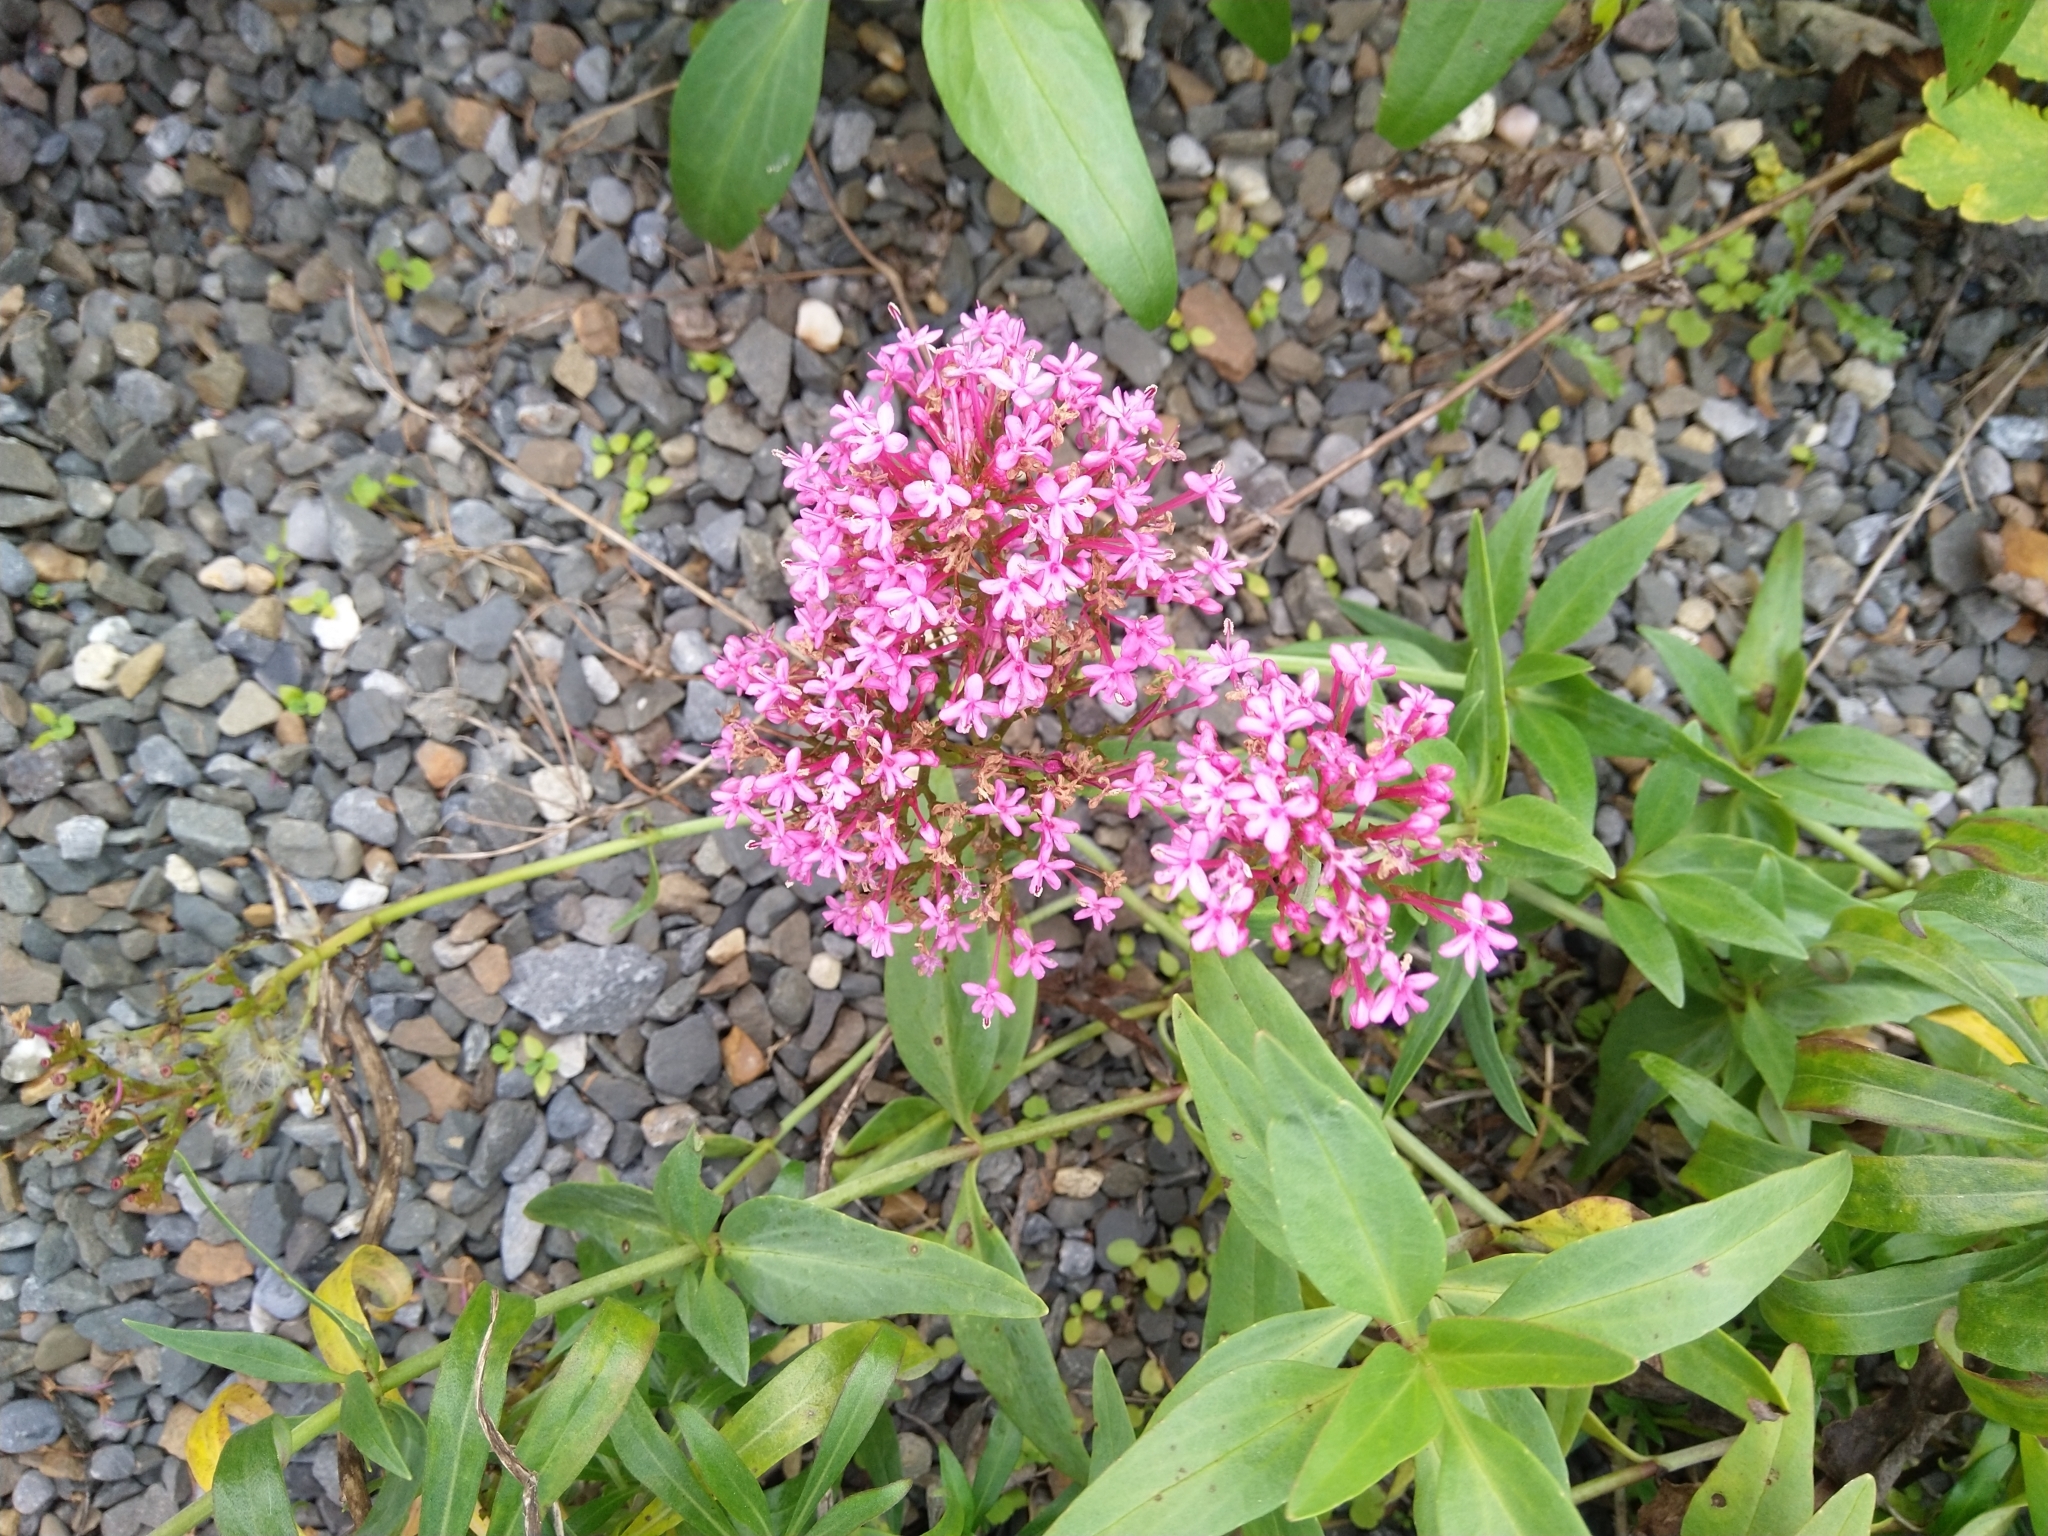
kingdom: Plantae
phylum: Tracheophyta
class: Magnoliopsida
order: Dipsacales
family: Caprifoliaceae
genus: Centranthus
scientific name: Centranthus ruber
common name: Red valerian
